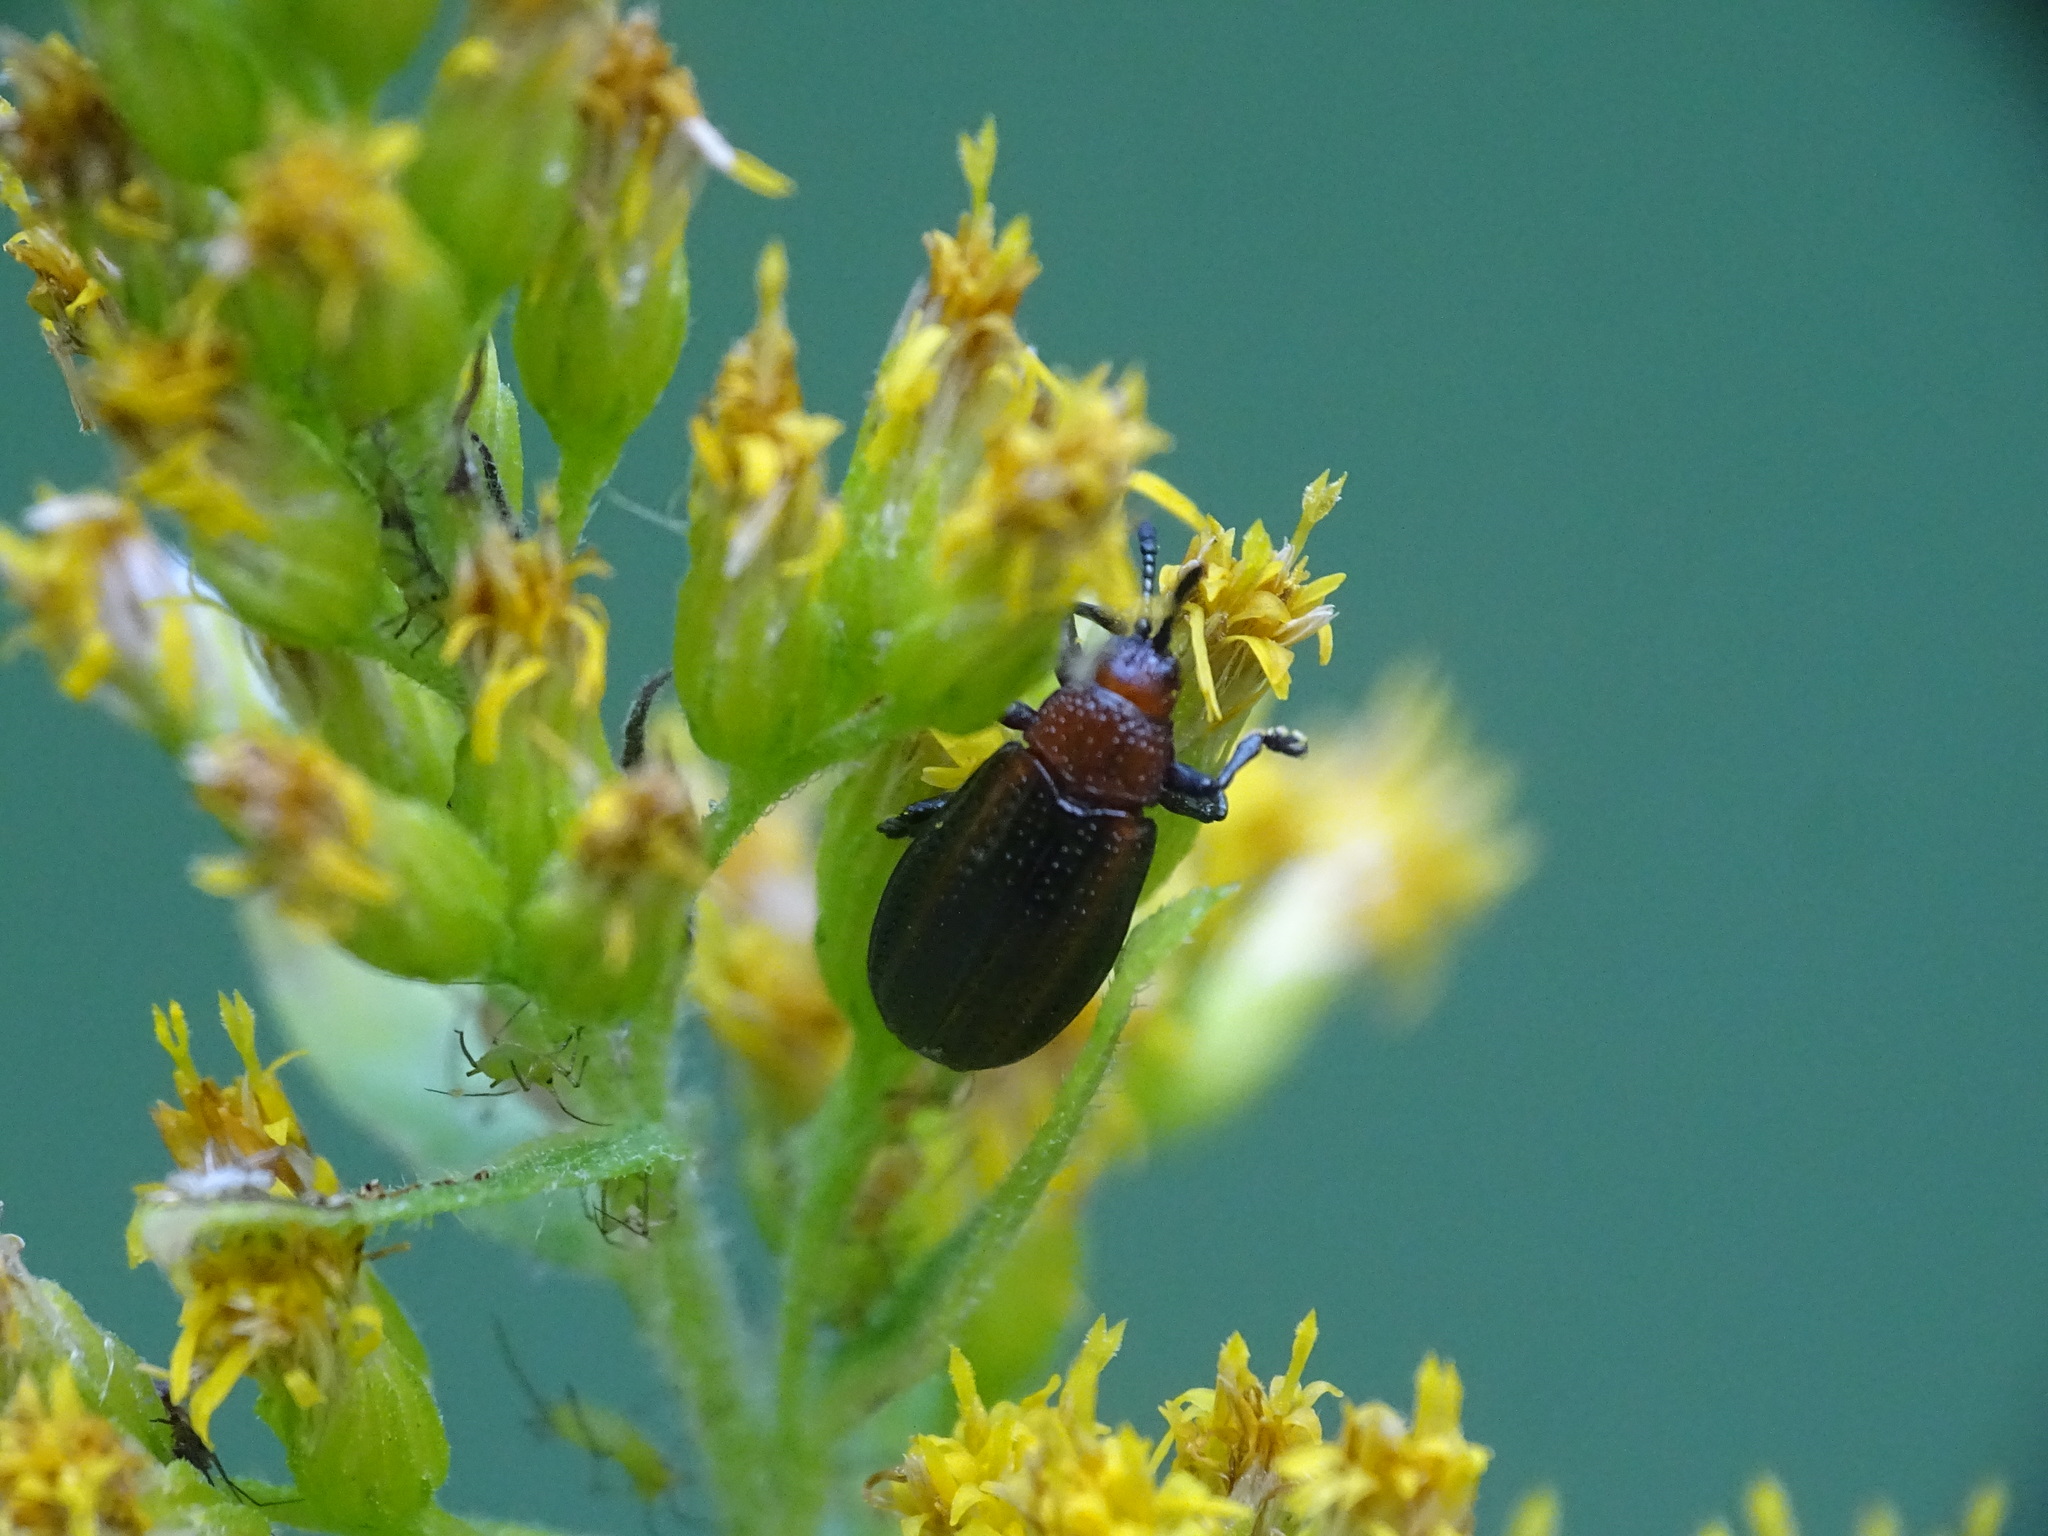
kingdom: Animalia
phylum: Arthropoda
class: Insecta
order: Coleoptera
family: Chrysomelidae
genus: Microrhopala
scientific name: Microrhopala vittata
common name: Goldenrod leaf miner beetle
